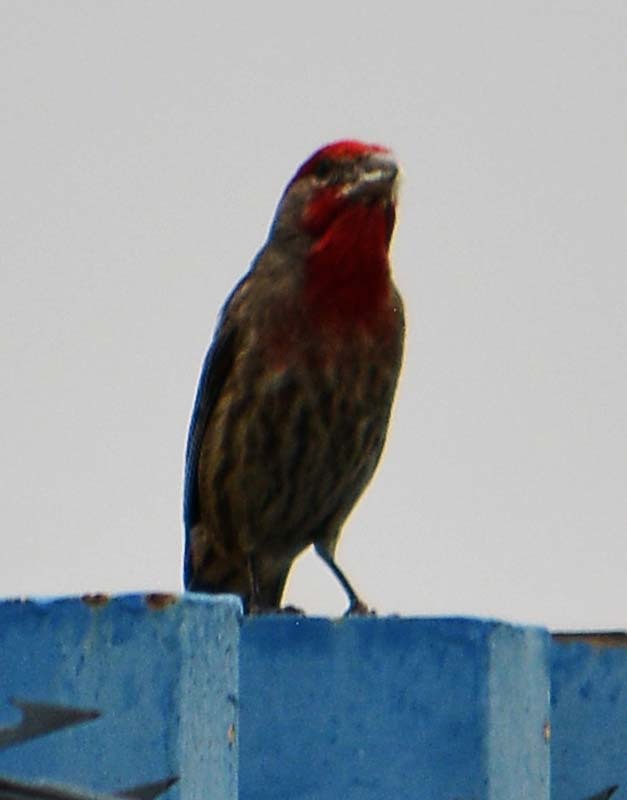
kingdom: Animalia
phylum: Chordata
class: Aves
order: Passeriformes
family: Fringillidae
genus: Haemorhous
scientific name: Haemorhous mexicanus
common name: House finch
